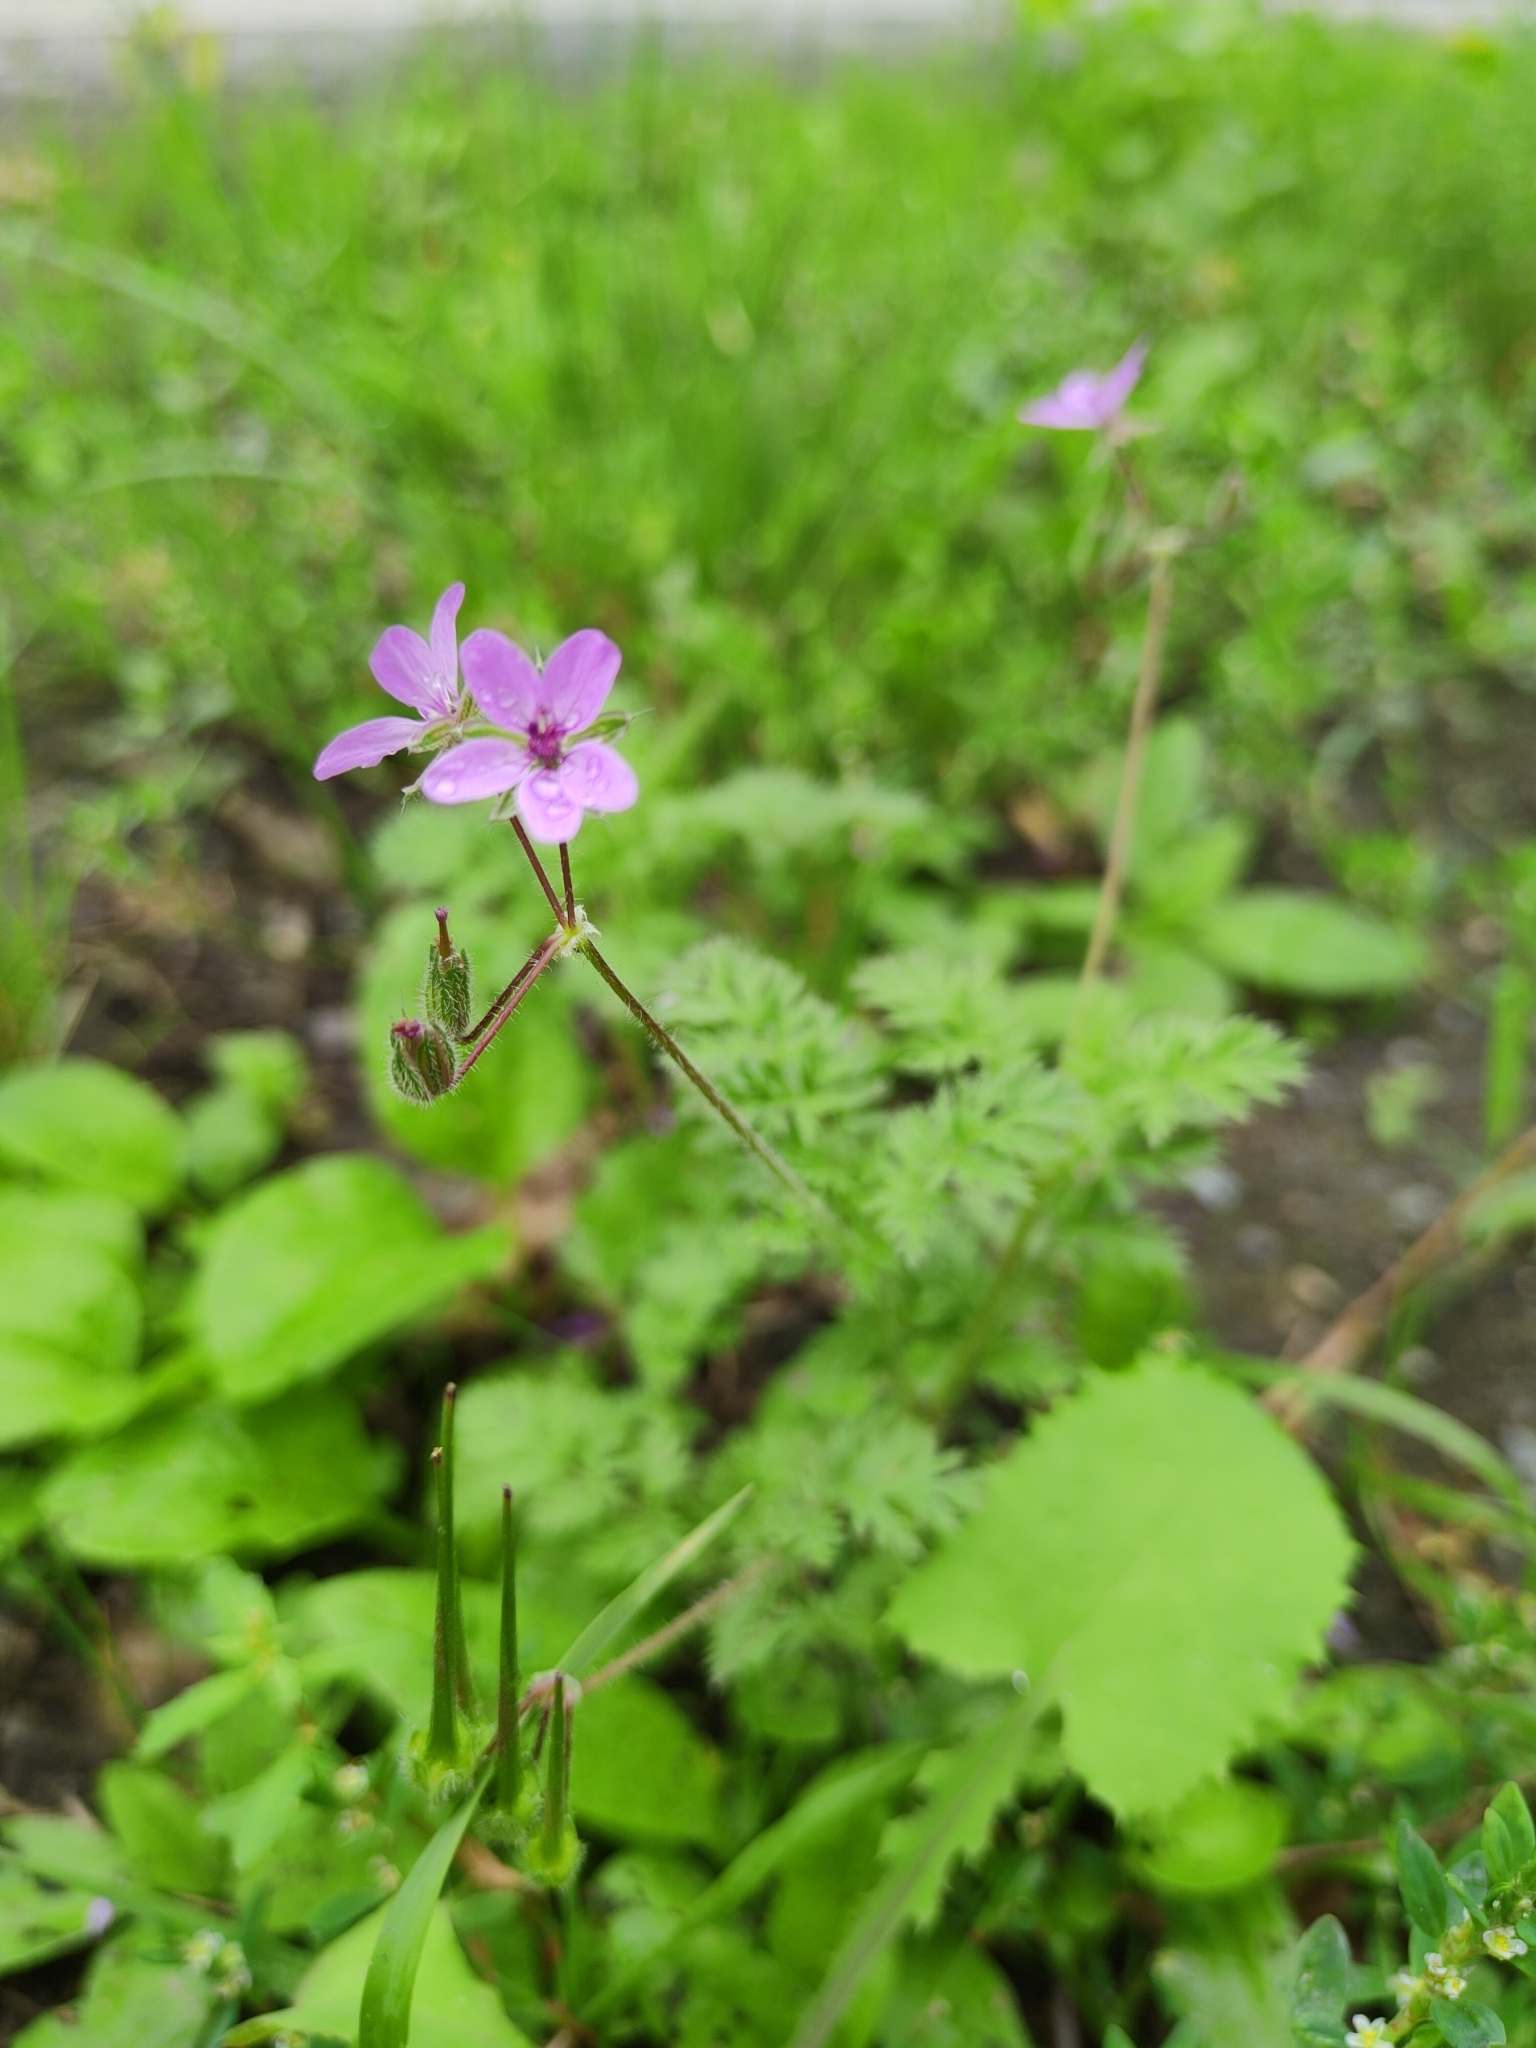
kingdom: Plantae
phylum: Tracheophyta
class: Magnoliopsida
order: Geraniales
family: Geraniaceae
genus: Erodium
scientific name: Erodium cicutarium
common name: Common stork's-bill
